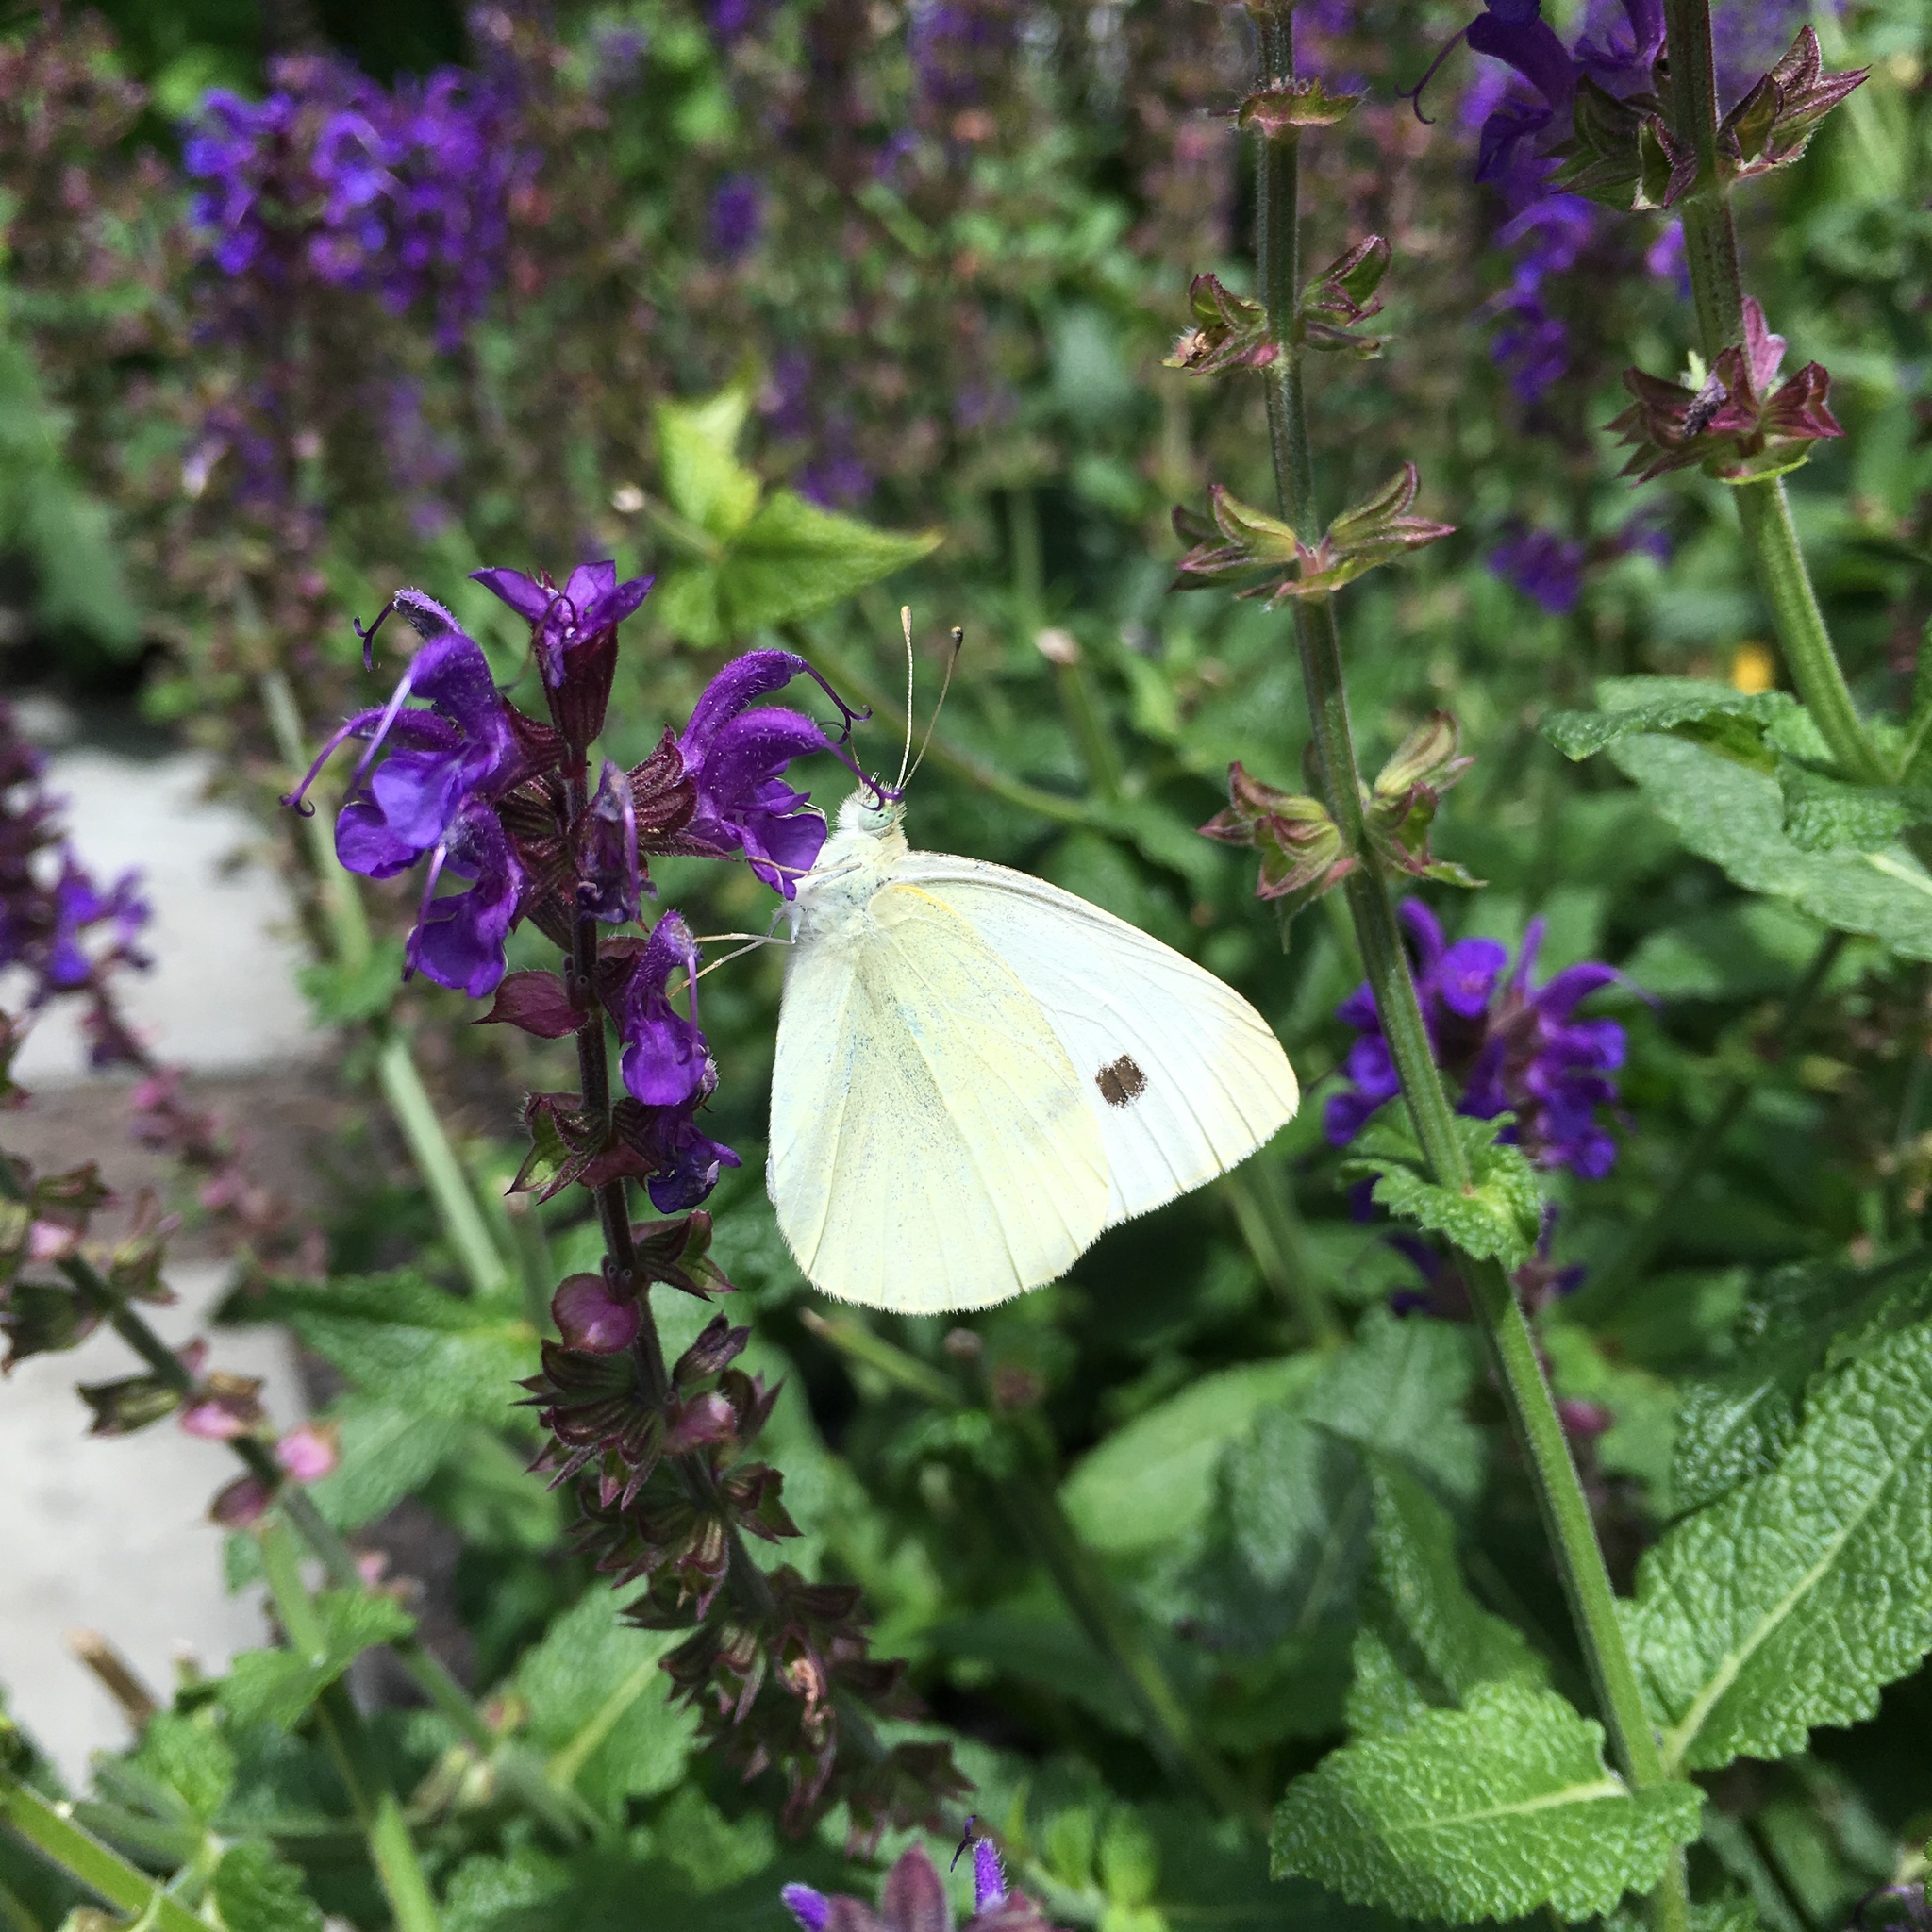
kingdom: Animalia
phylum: Arthropoda
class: Insecta
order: Lepidoptera
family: Pieridae
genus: Pieris
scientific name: Pieris rapae
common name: Small white
